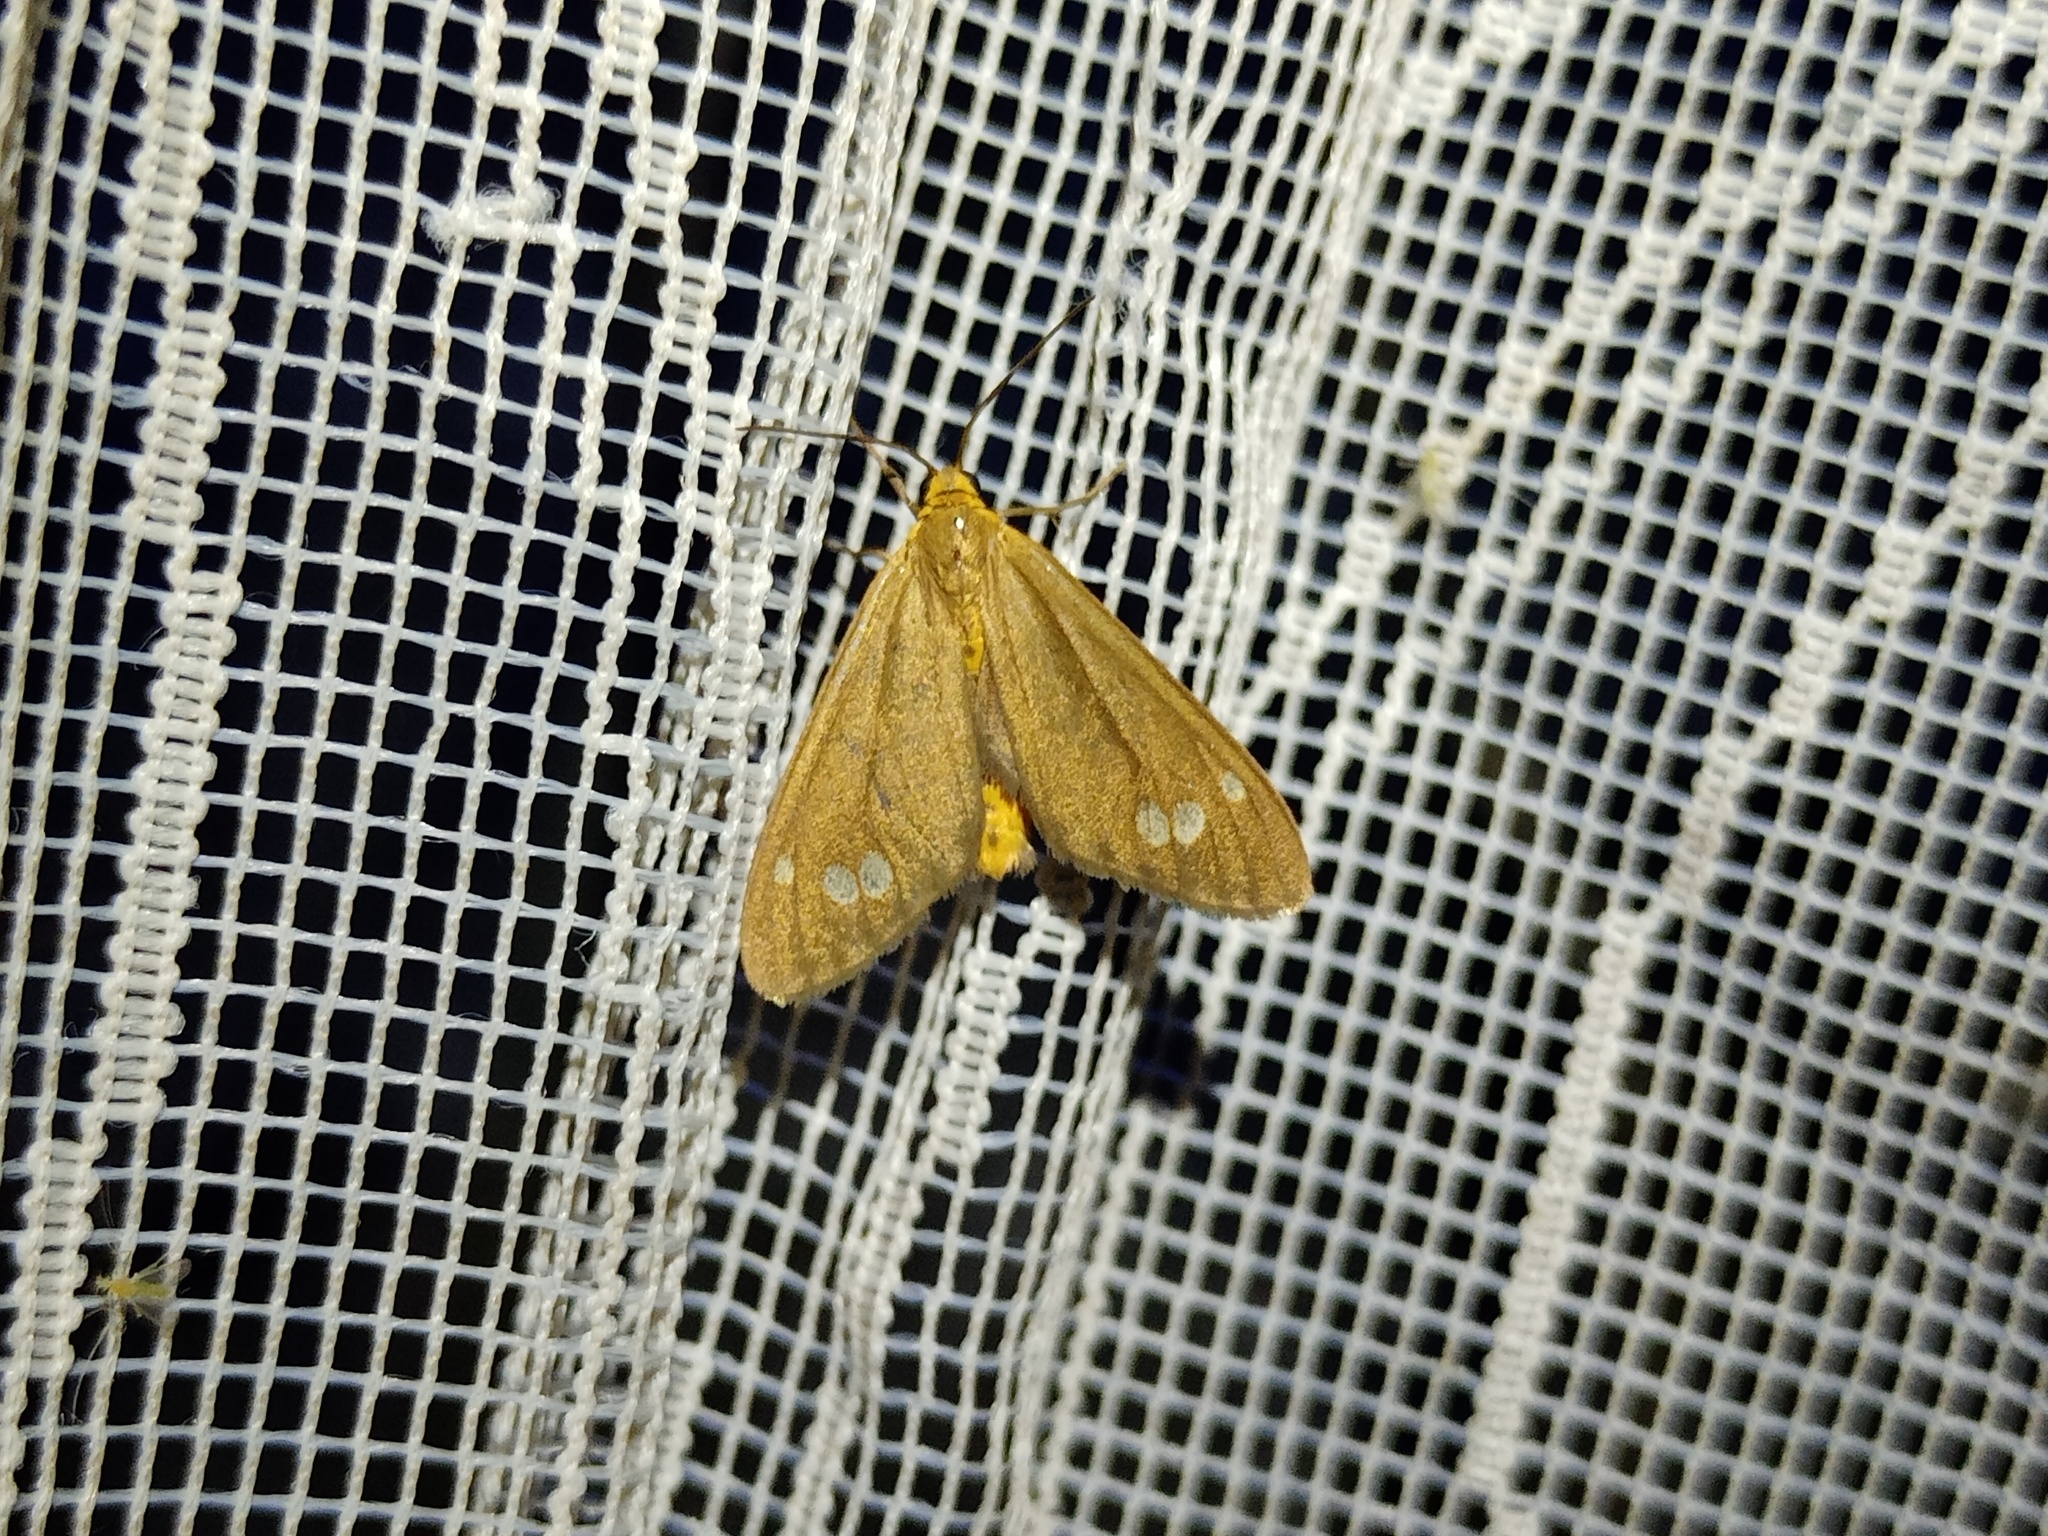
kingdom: Animalia
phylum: Arthropoda
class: Insecta
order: Lepidoptera
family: Erebidae
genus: Dysauxes
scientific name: Dysauxes ancilla
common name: The handmaid
